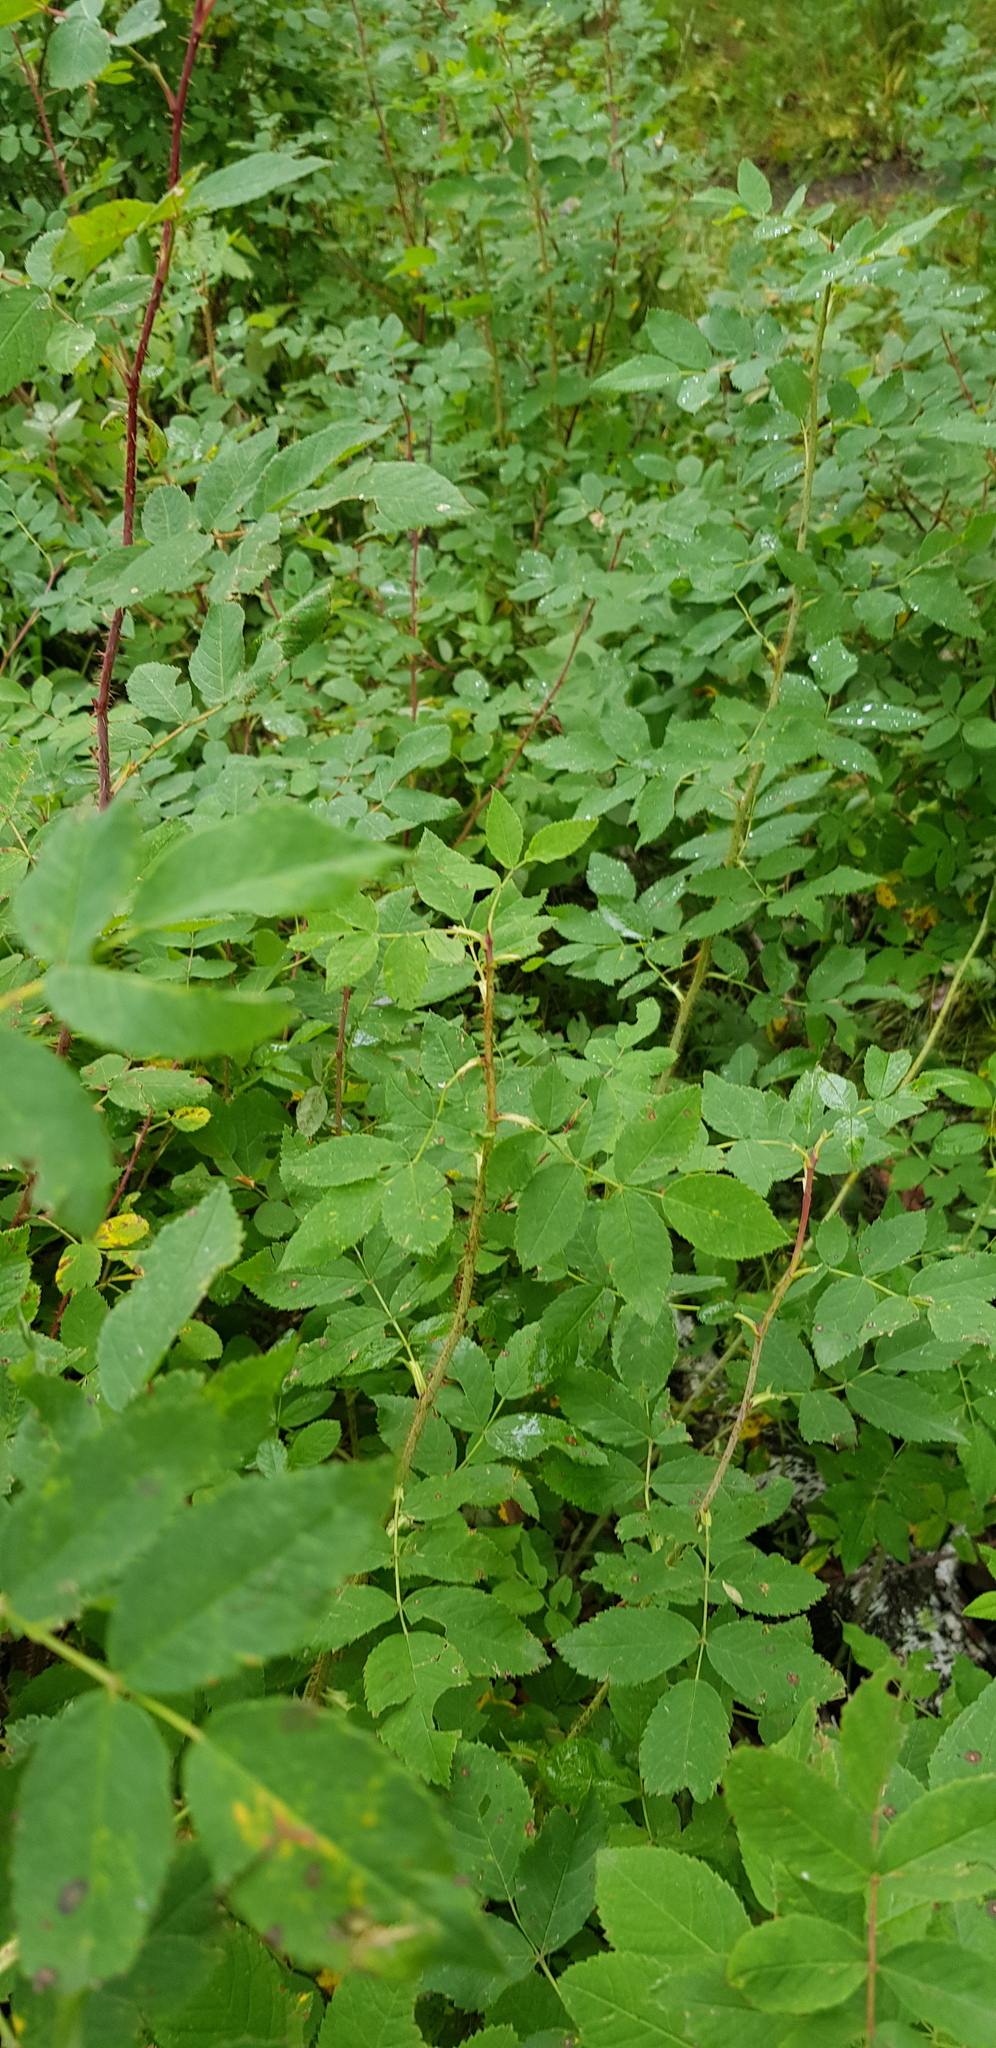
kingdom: Plantae
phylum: Tracheophyta
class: Magnoliopsida
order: Rosales
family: Rosaceae
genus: Rosa
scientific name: Rosa acicularis
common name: Prickly rose
